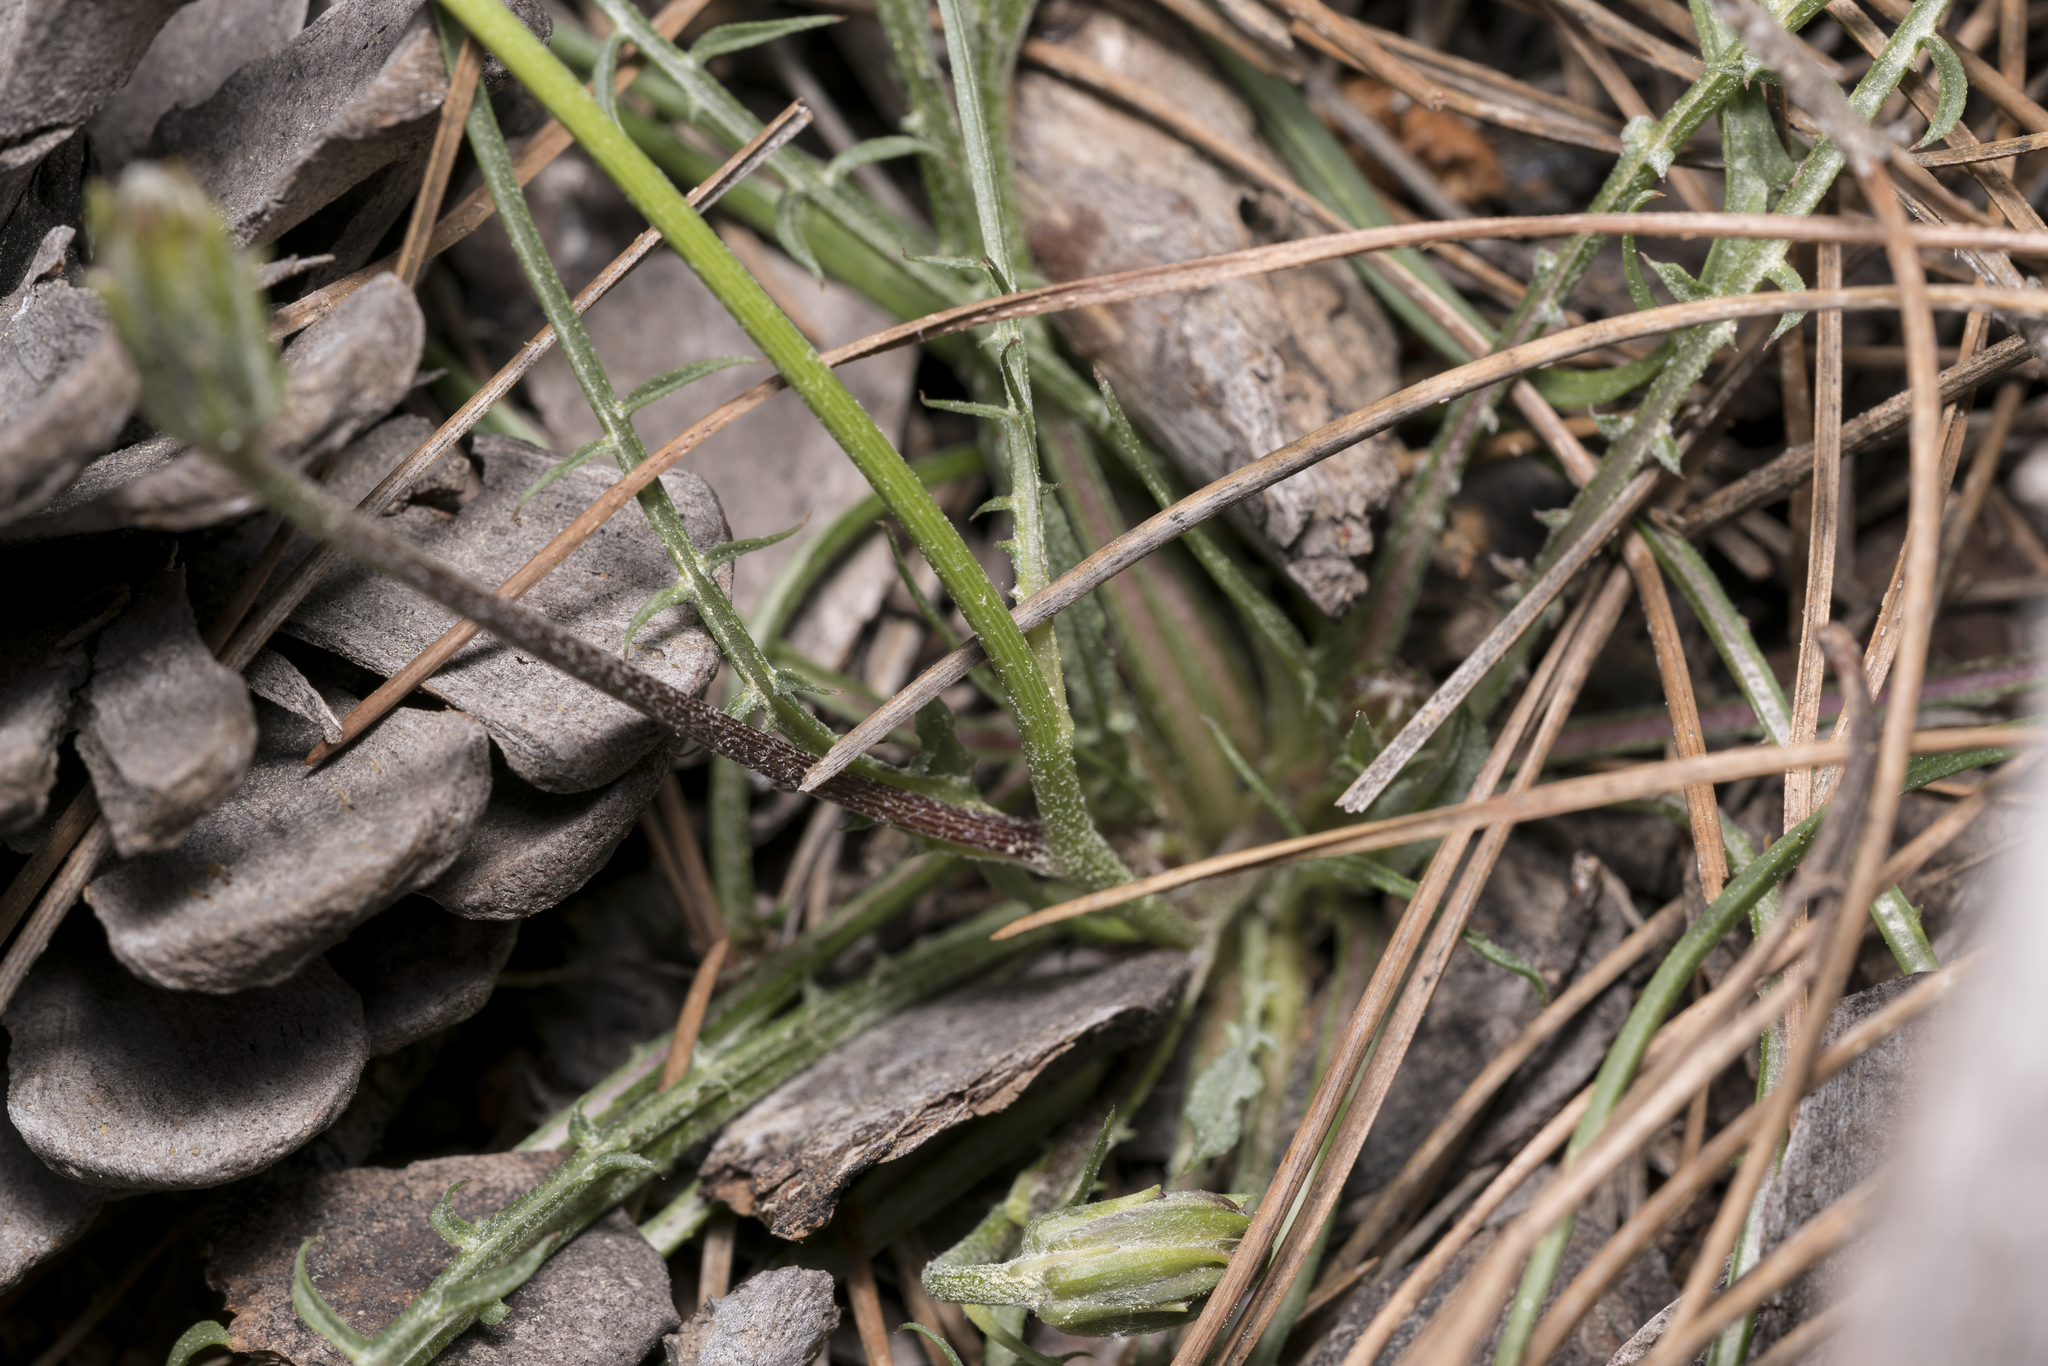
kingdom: Plantae
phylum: Tracheophyta
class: Magnoliopsida
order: Asterales
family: Asteraceae
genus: Scorzonera
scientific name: Scorzonera cana
